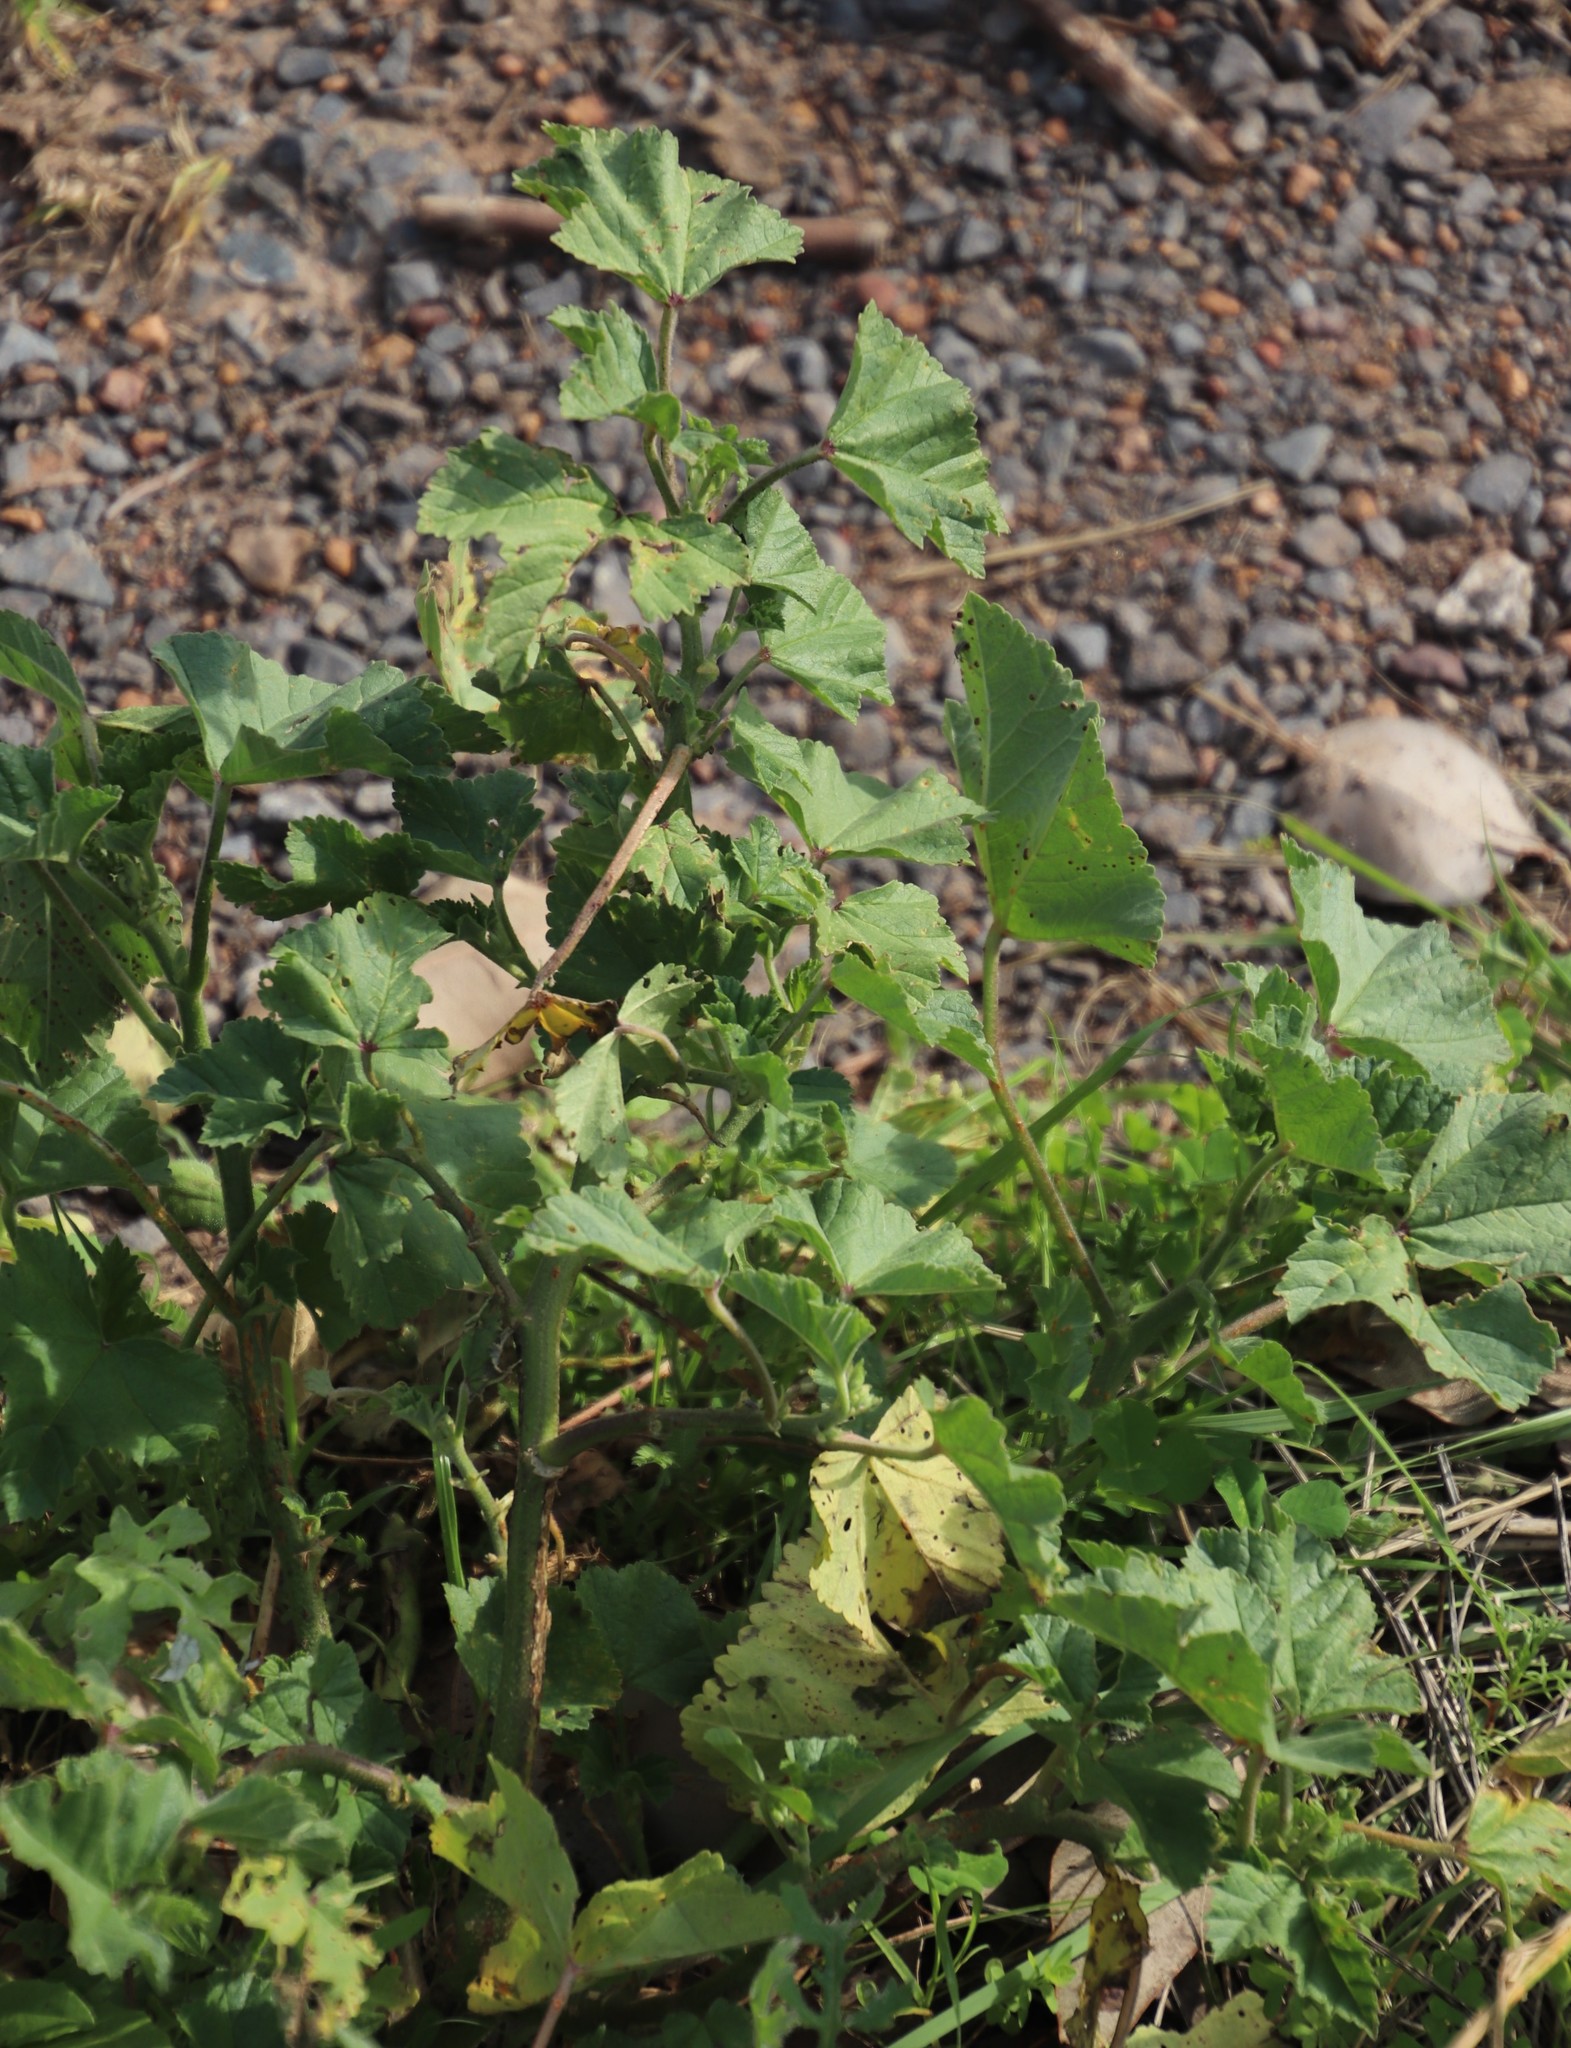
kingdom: Plantae
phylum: Tracheophyta
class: Magnoliopsida
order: Malvales
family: Malvaceae
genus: Malva
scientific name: Malva parviflora
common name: Least mallow
